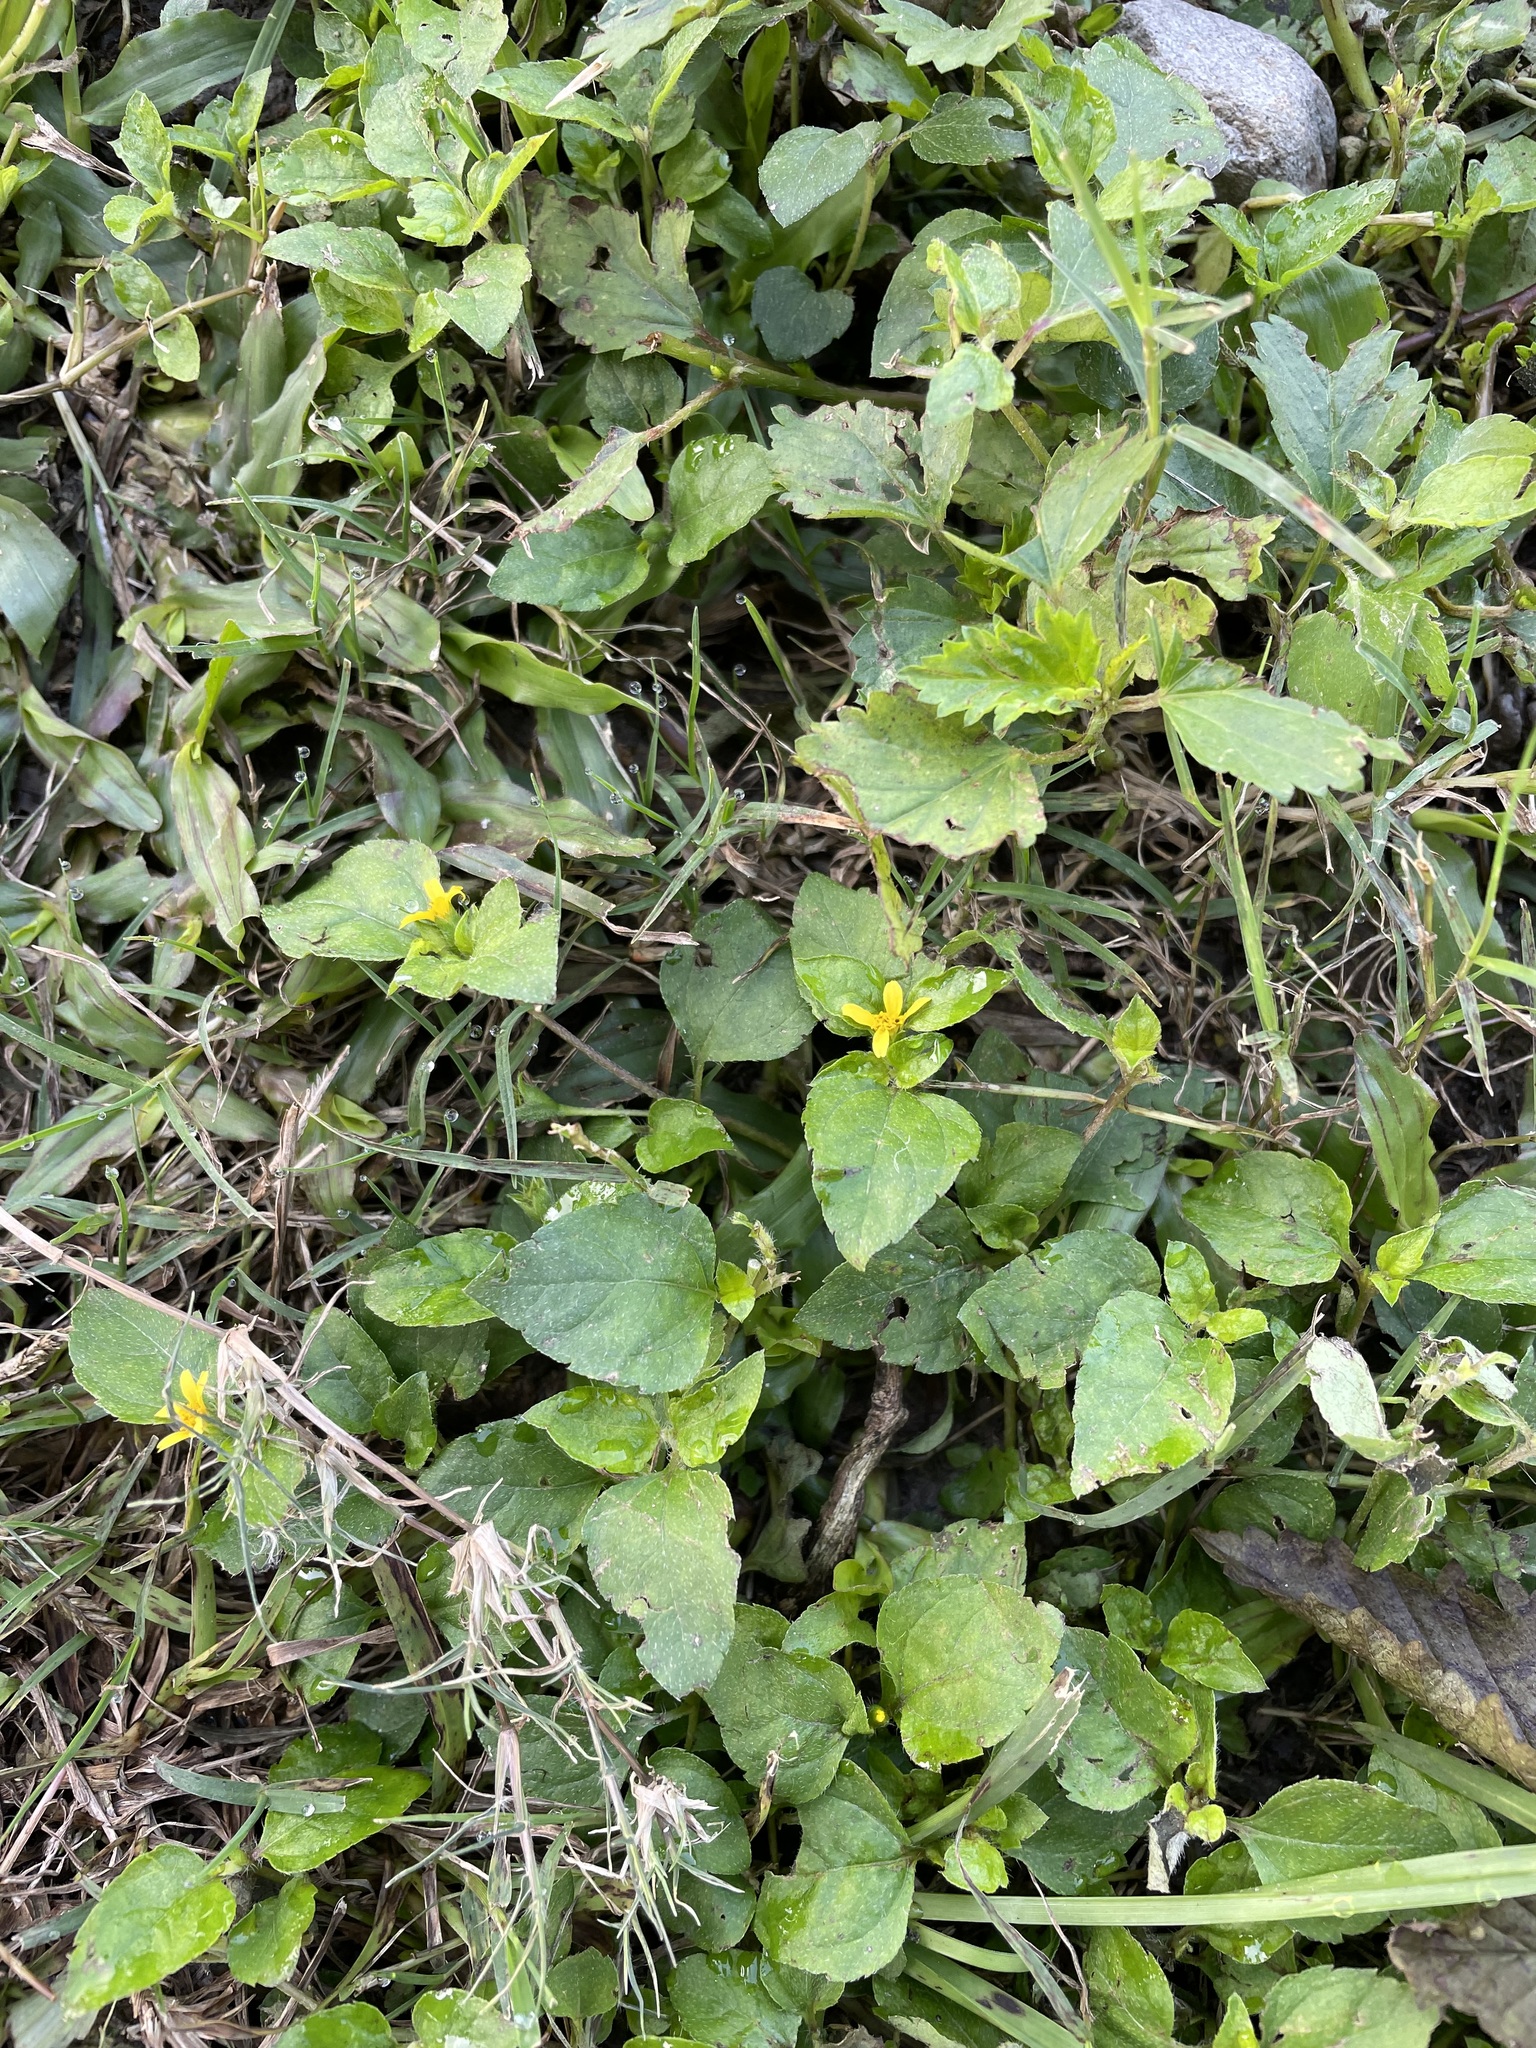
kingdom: Plantae
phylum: Tracheophyta
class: Magnoliopsida
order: Asterales
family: Asteraceae
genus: Calyptocarpus
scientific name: Calyptocarpus vialis
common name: Straggler daisy
